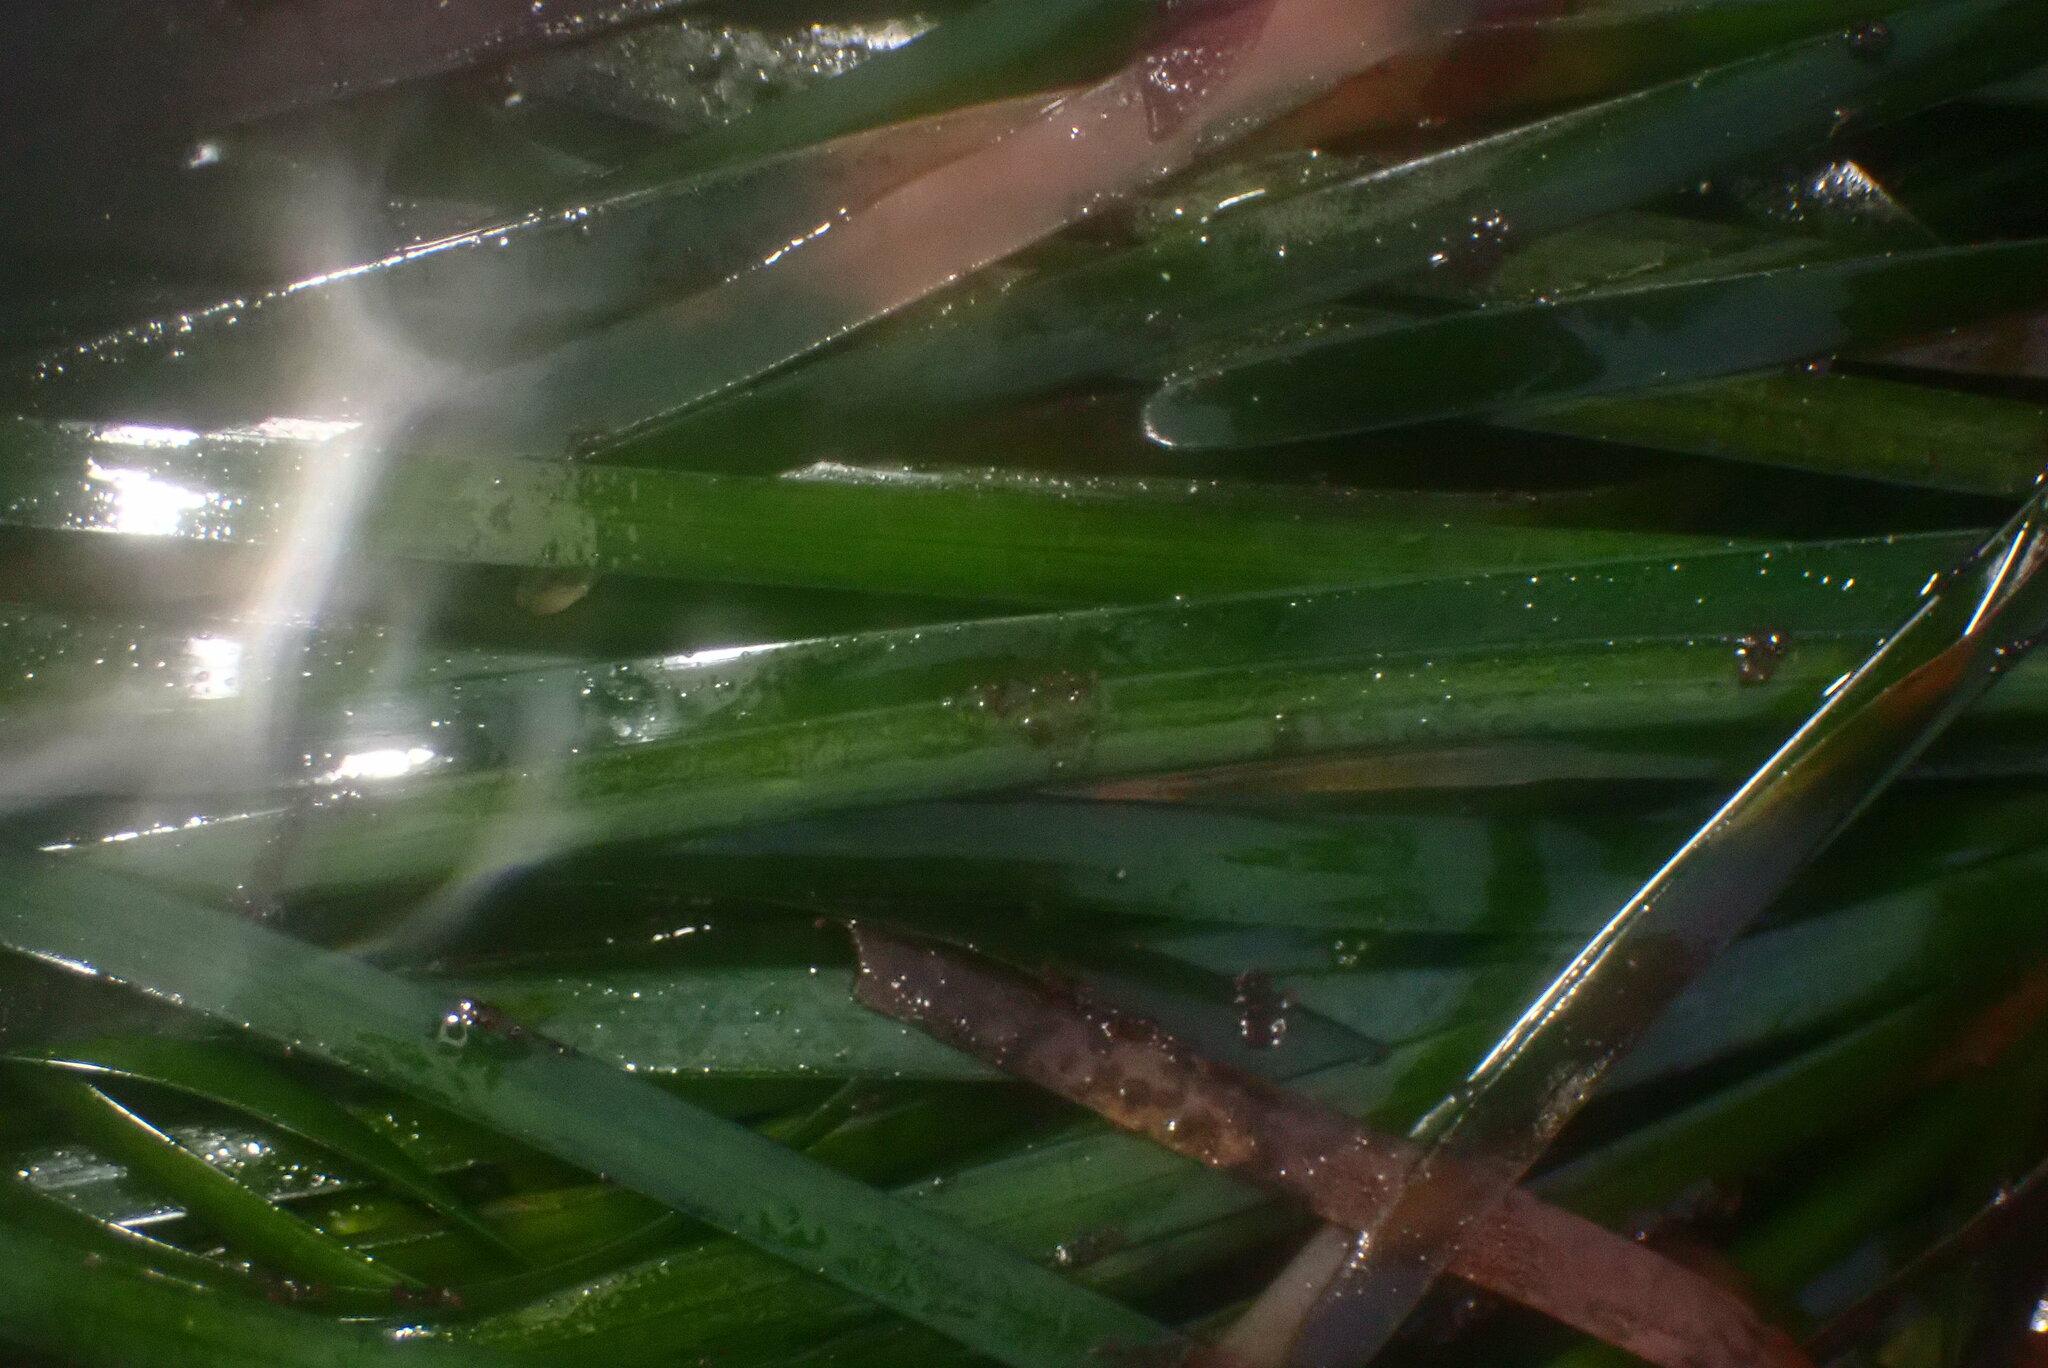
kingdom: Plantae
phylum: Tracheophyta
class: Liliopsida
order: Alismatales
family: Zosteraceae
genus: Phyllospadix
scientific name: Phyllospadix scouleri
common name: Species code: ps
